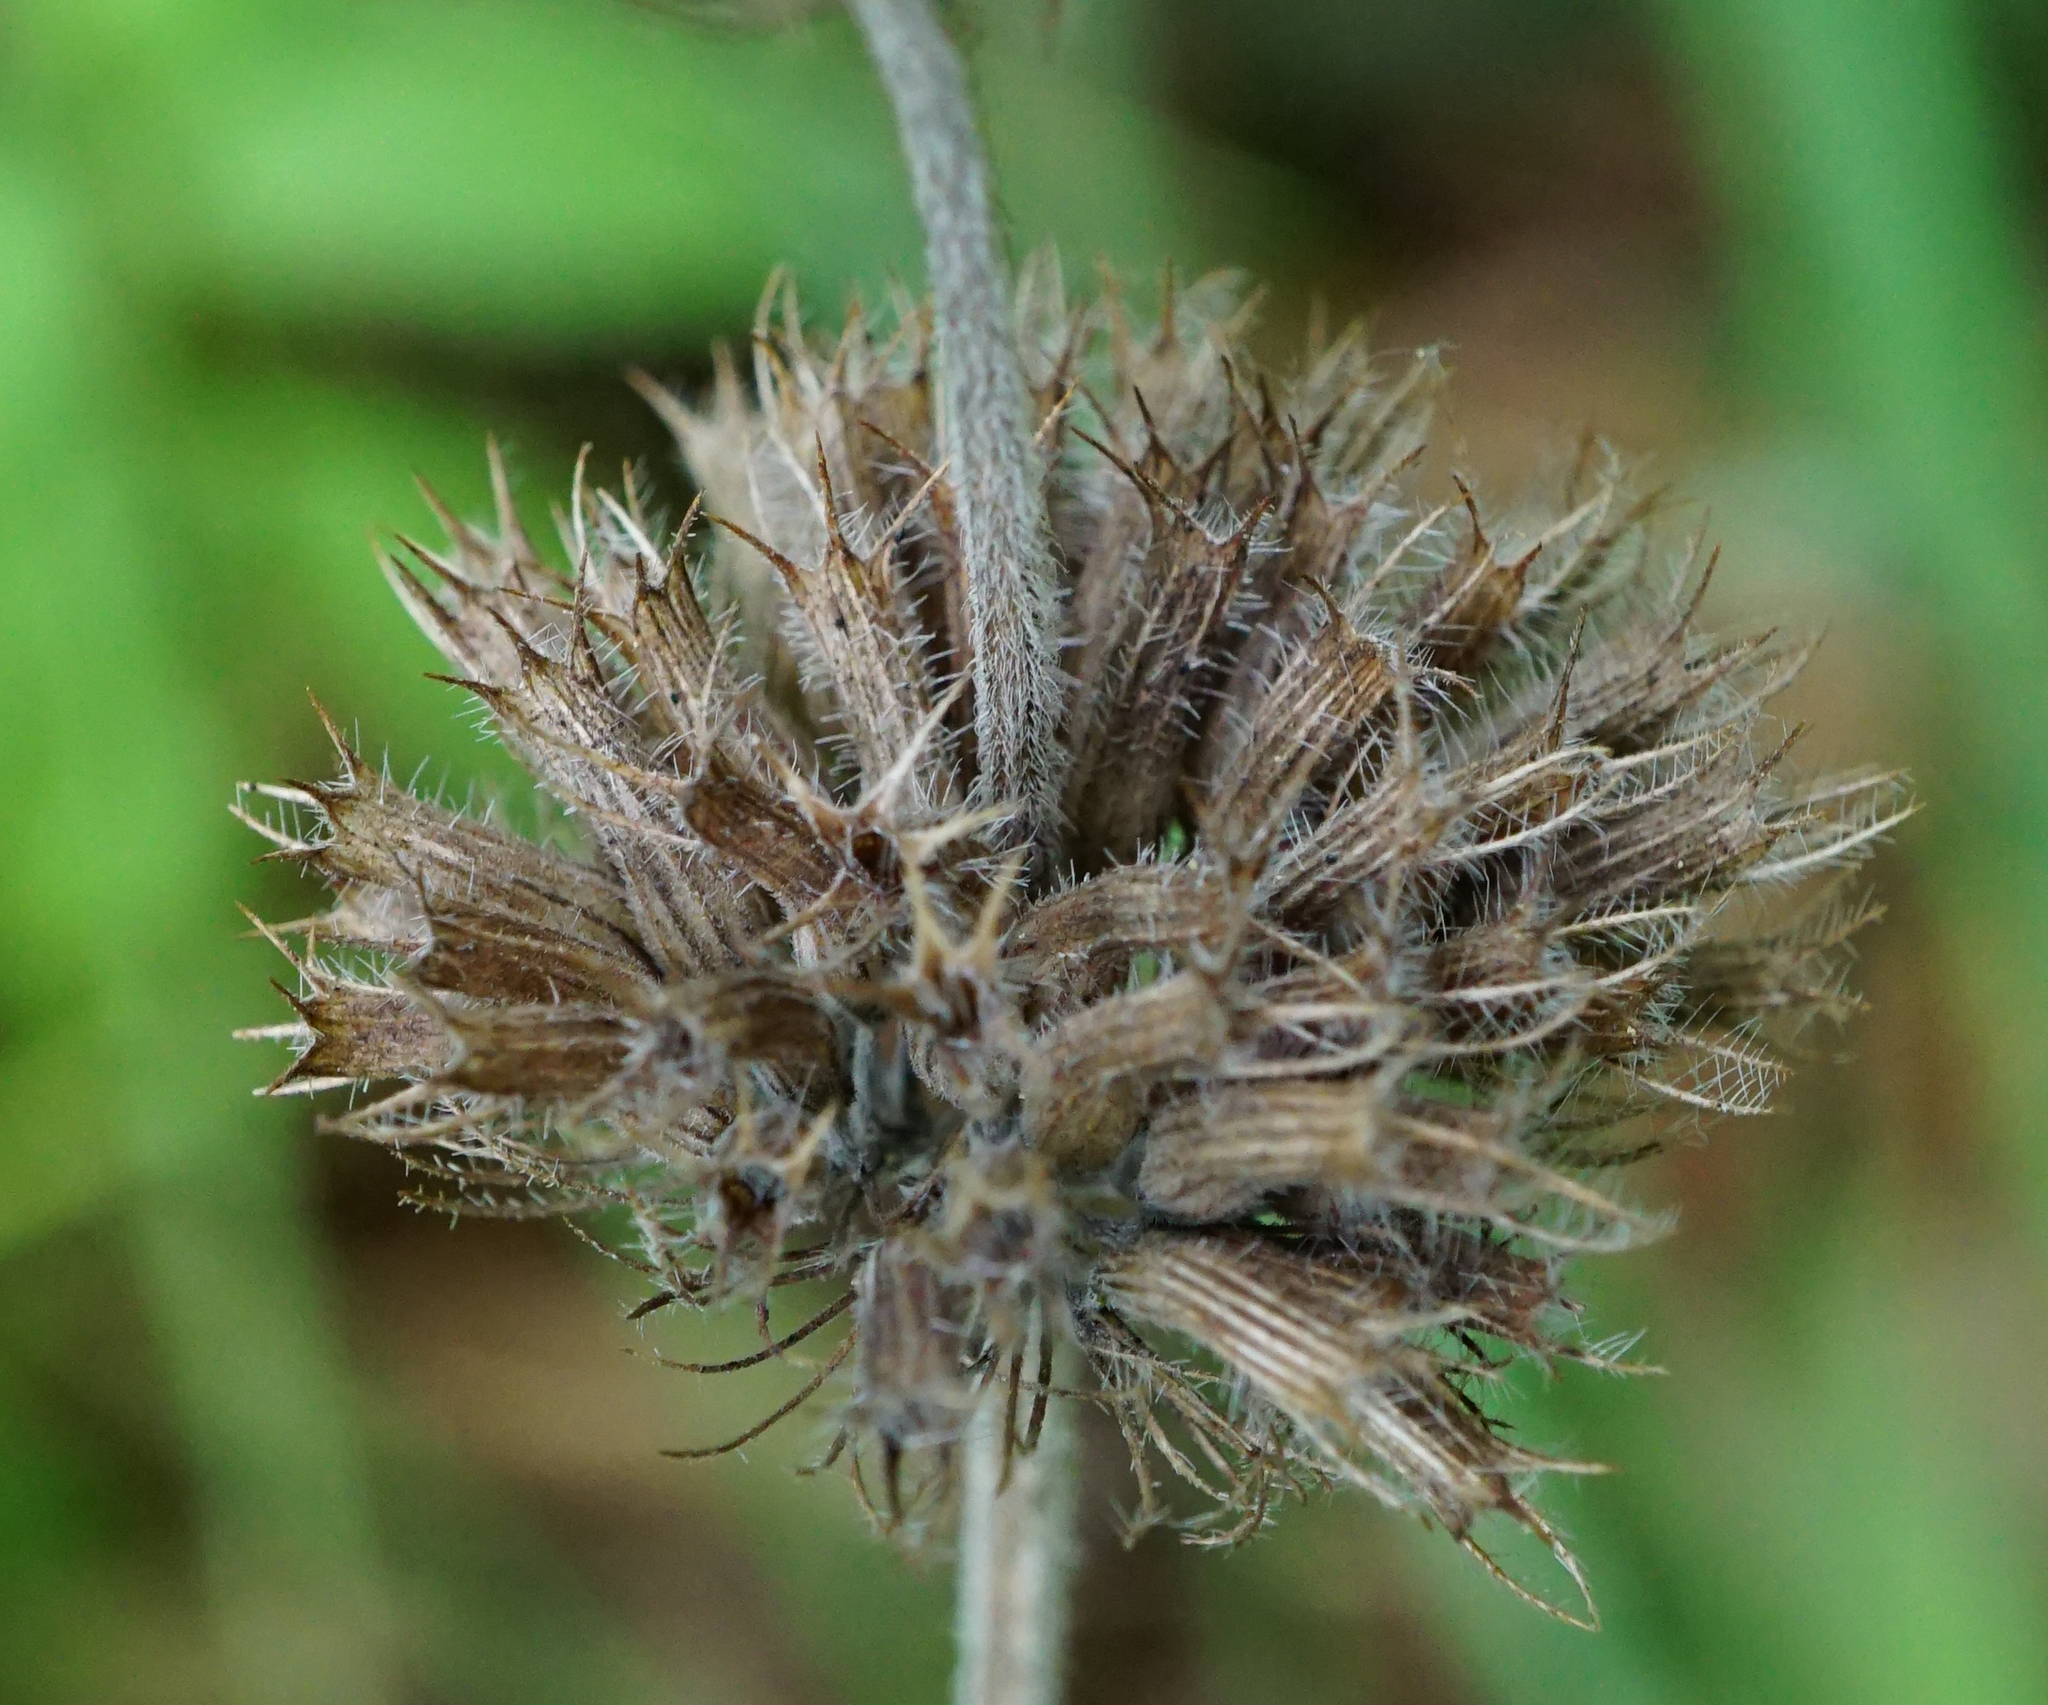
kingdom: Plantae
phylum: Tracheophyta
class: Magnoliopsida
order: Lamiales
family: Lamiaceae
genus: Clinopodium
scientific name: Clinopodium vulgare
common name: Wild basil
